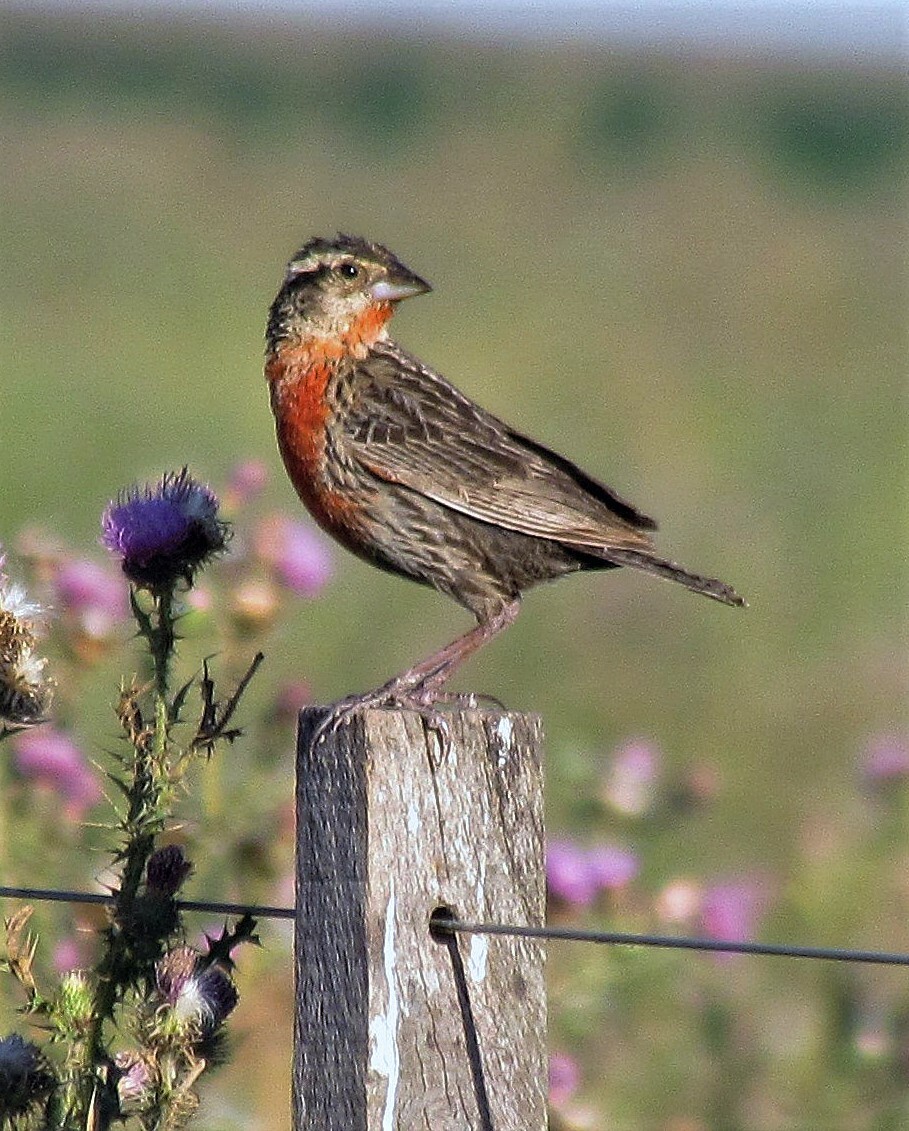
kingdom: Animalia
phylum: Chordata
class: Aves
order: Passeriformes
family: Icteridae
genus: Sturnella
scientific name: Sturnella superciliaris
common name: White-browed blackbird
